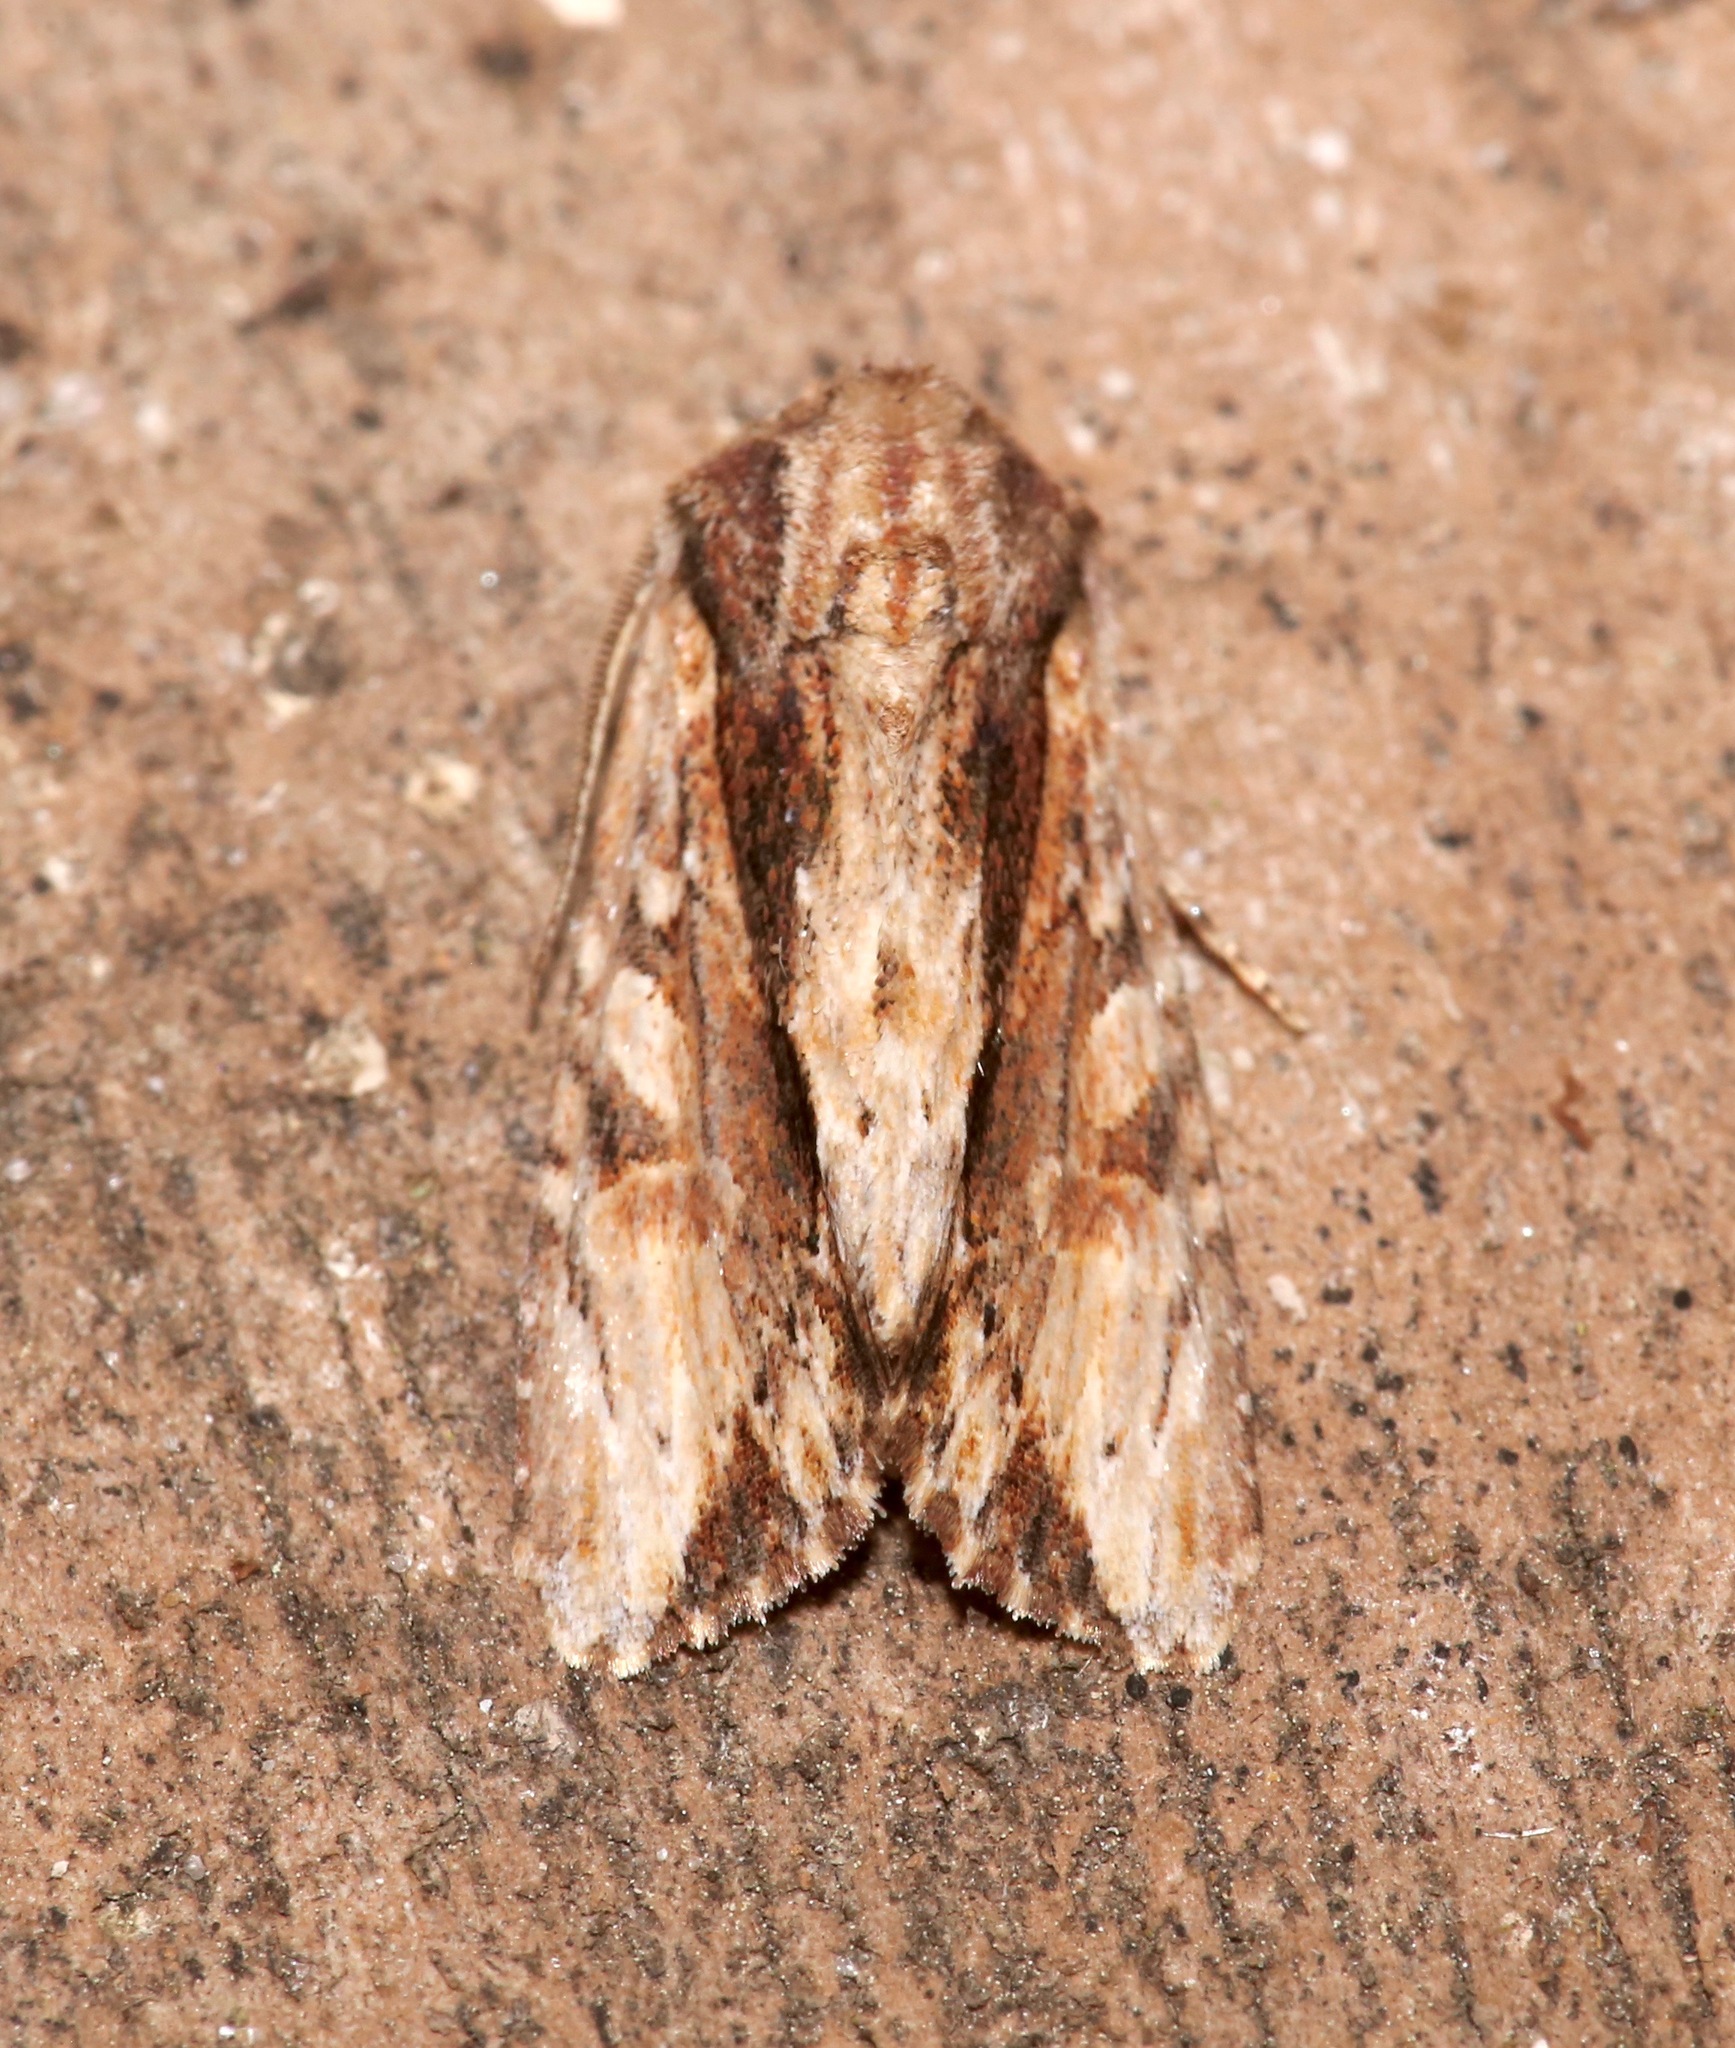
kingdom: Animalia
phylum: Arthropoda
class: Insecta
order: Lepidoptera
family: Noctuidae
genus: Achatia
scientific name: Achatia mucens
